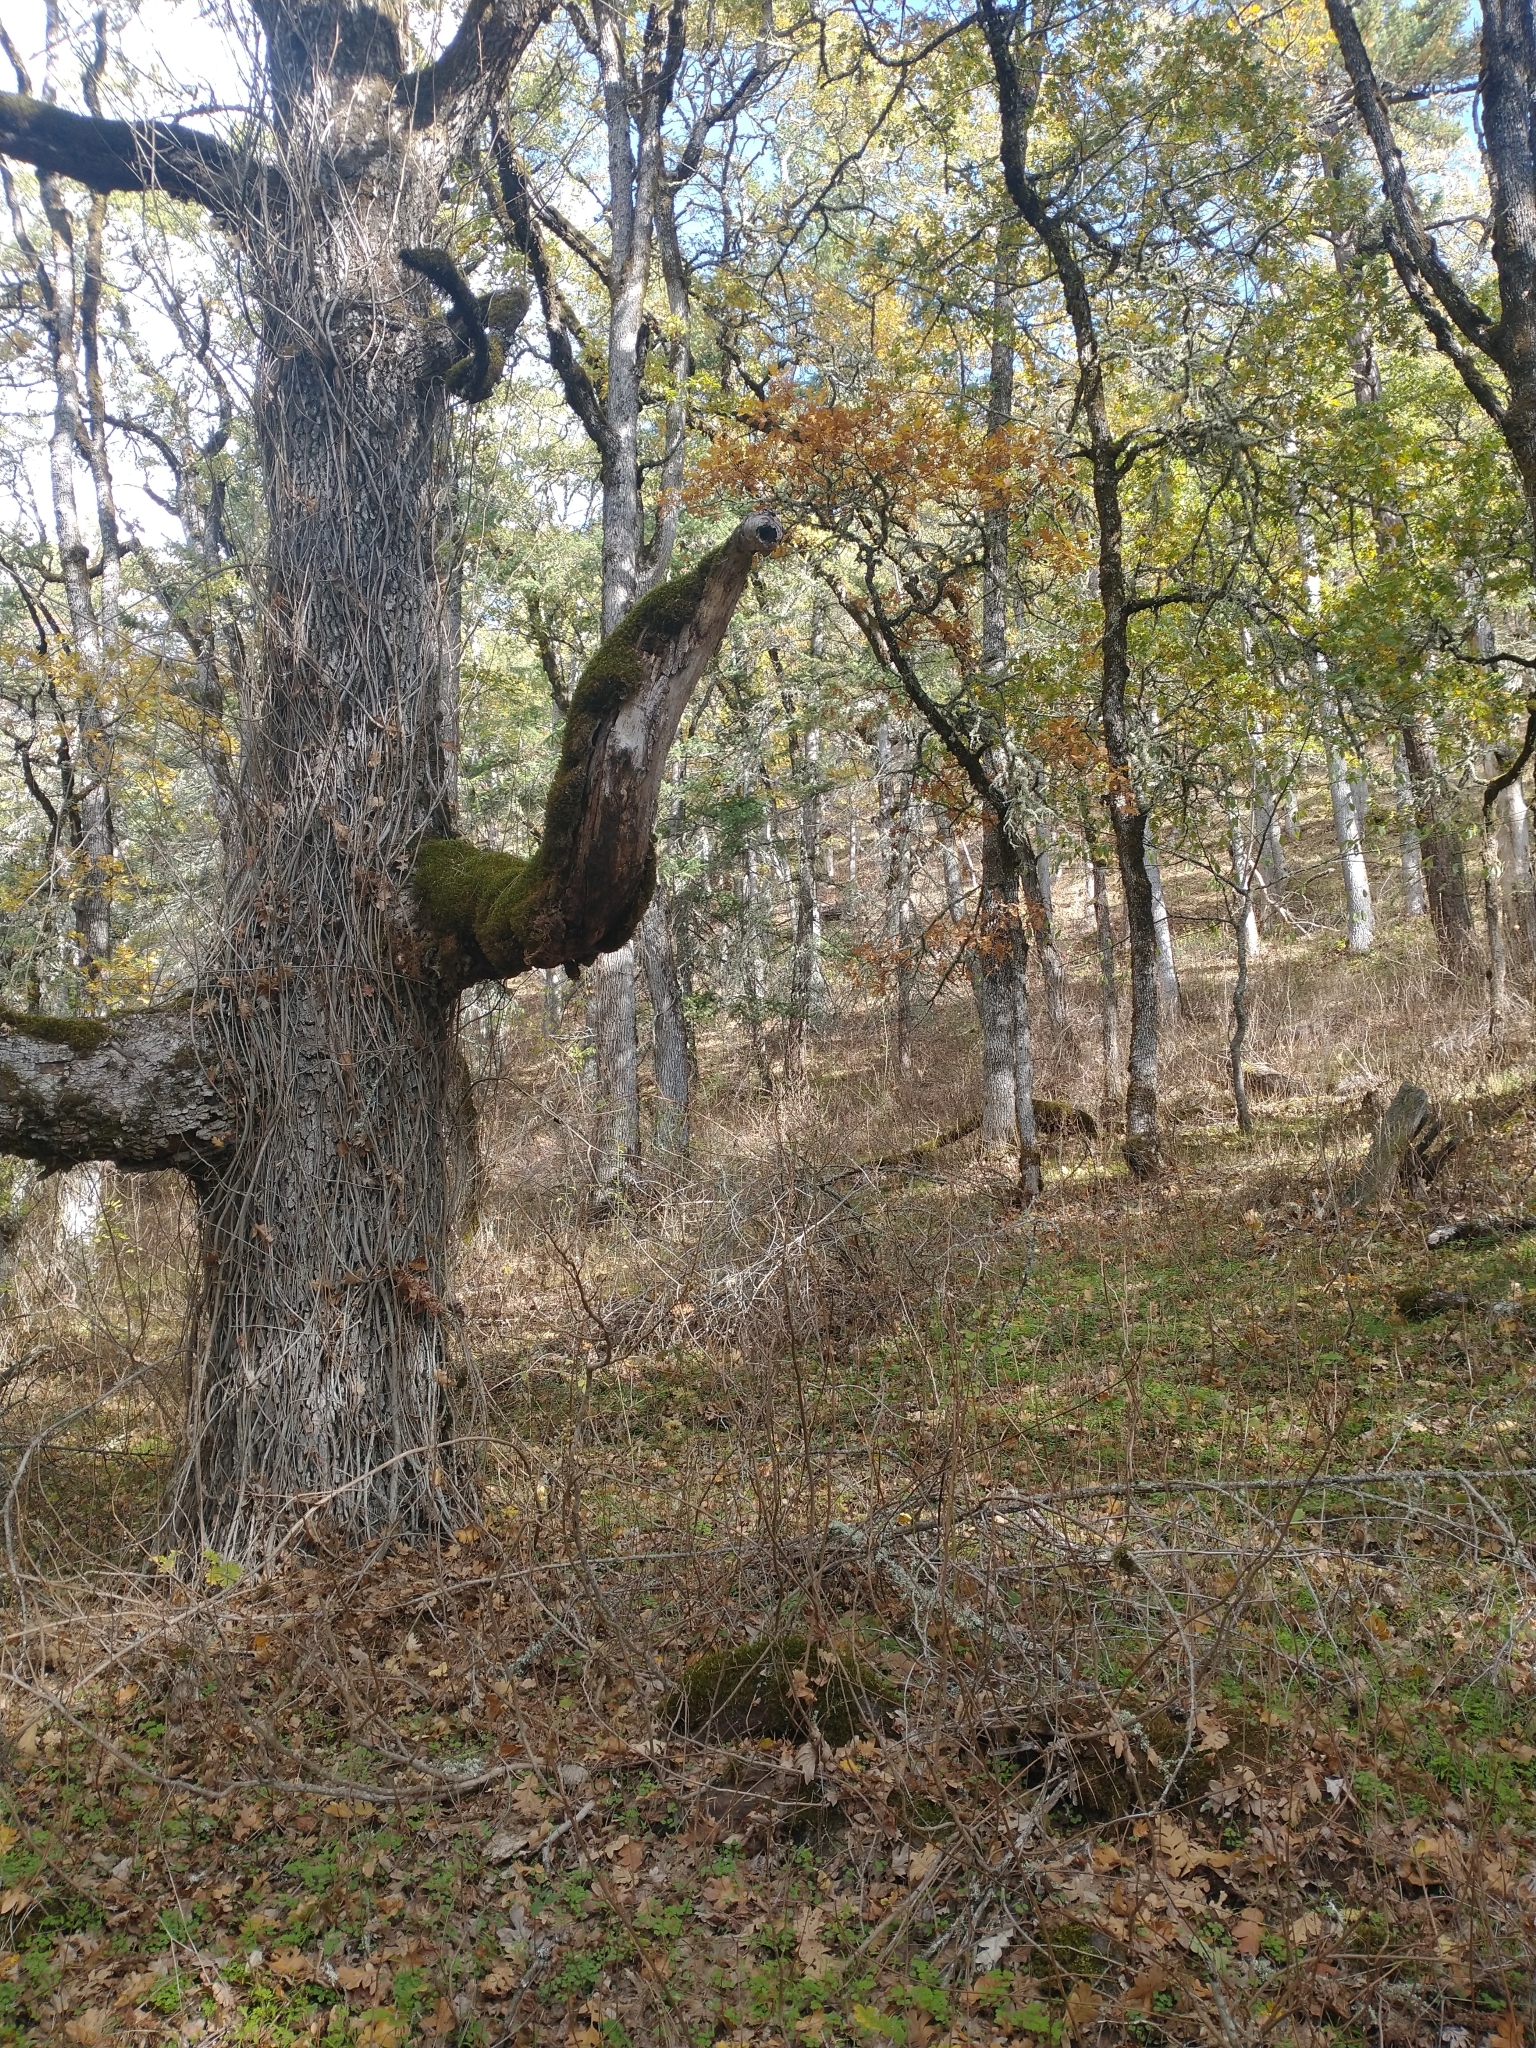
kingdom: Plantae
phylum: Tracheophyta
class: Magnoliopsida
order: Sapindales
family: Anacardiaceae
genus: Toxicodendron
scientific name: Toxicodendron diversilobum
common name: Pacific poison-oak
